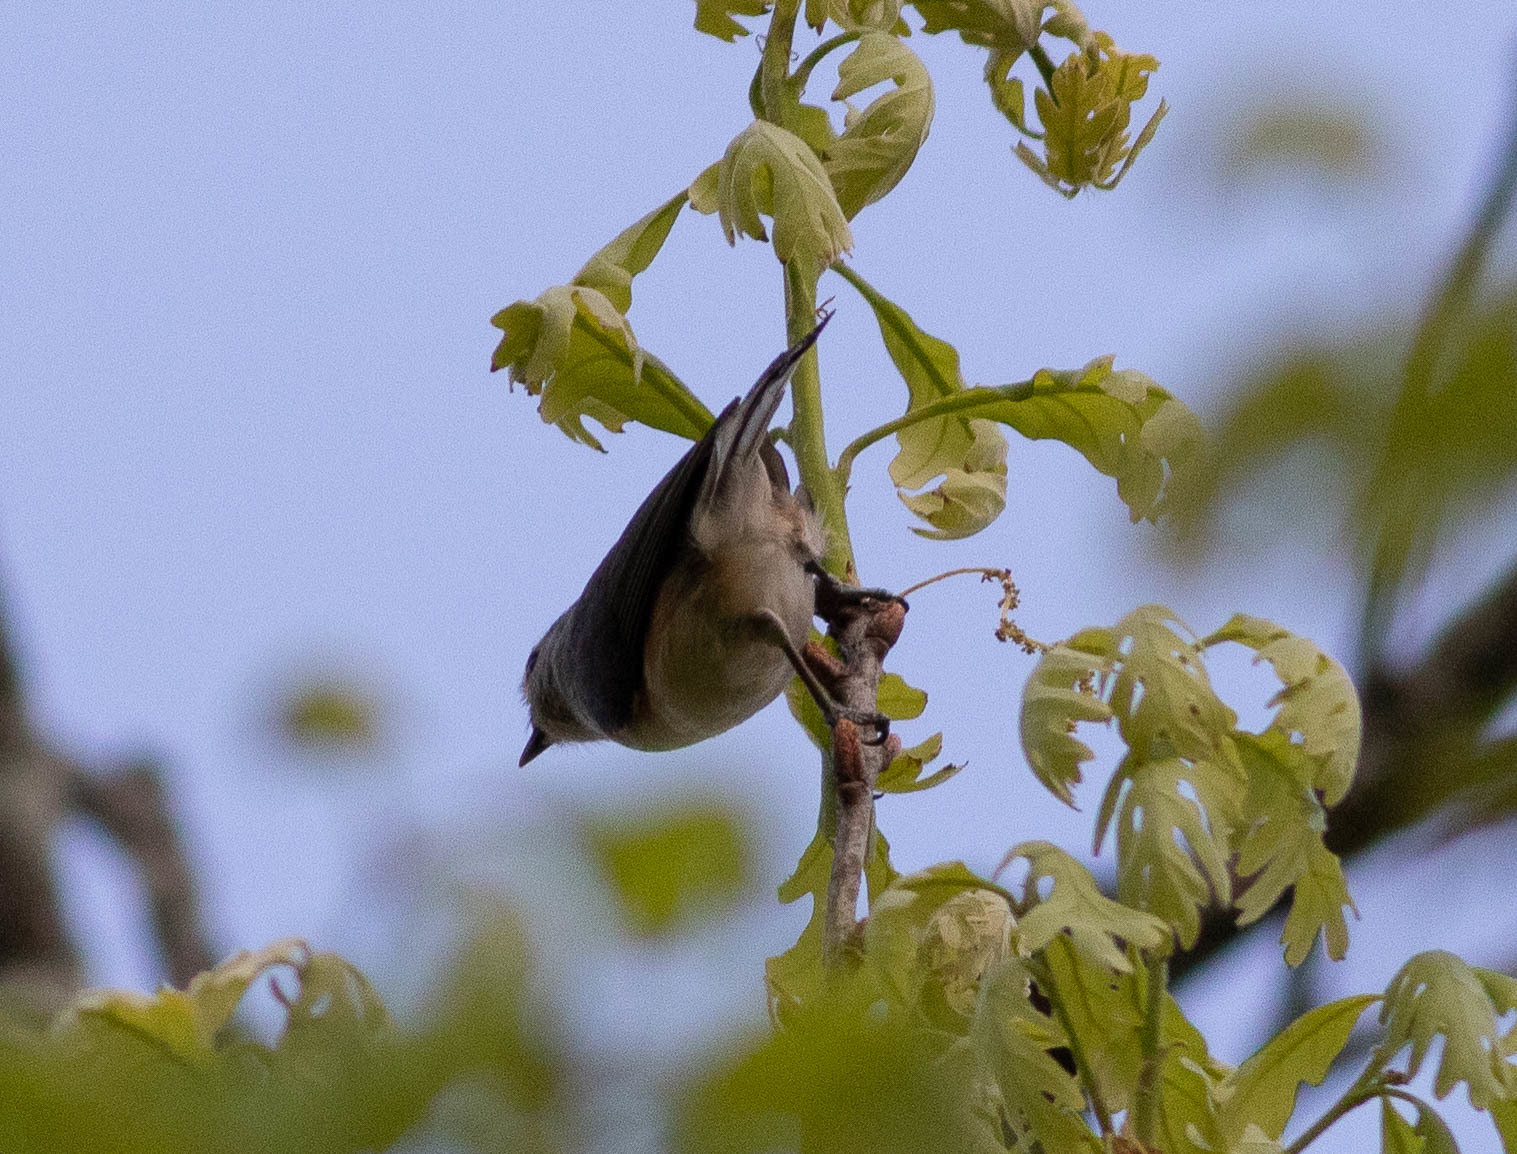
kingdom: Animalia
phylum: Chordata
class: Aves
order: Passeriformes
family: Paridae
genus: Baeolophus
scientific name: Baeolophus bicolor
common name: Tufted titmouse
